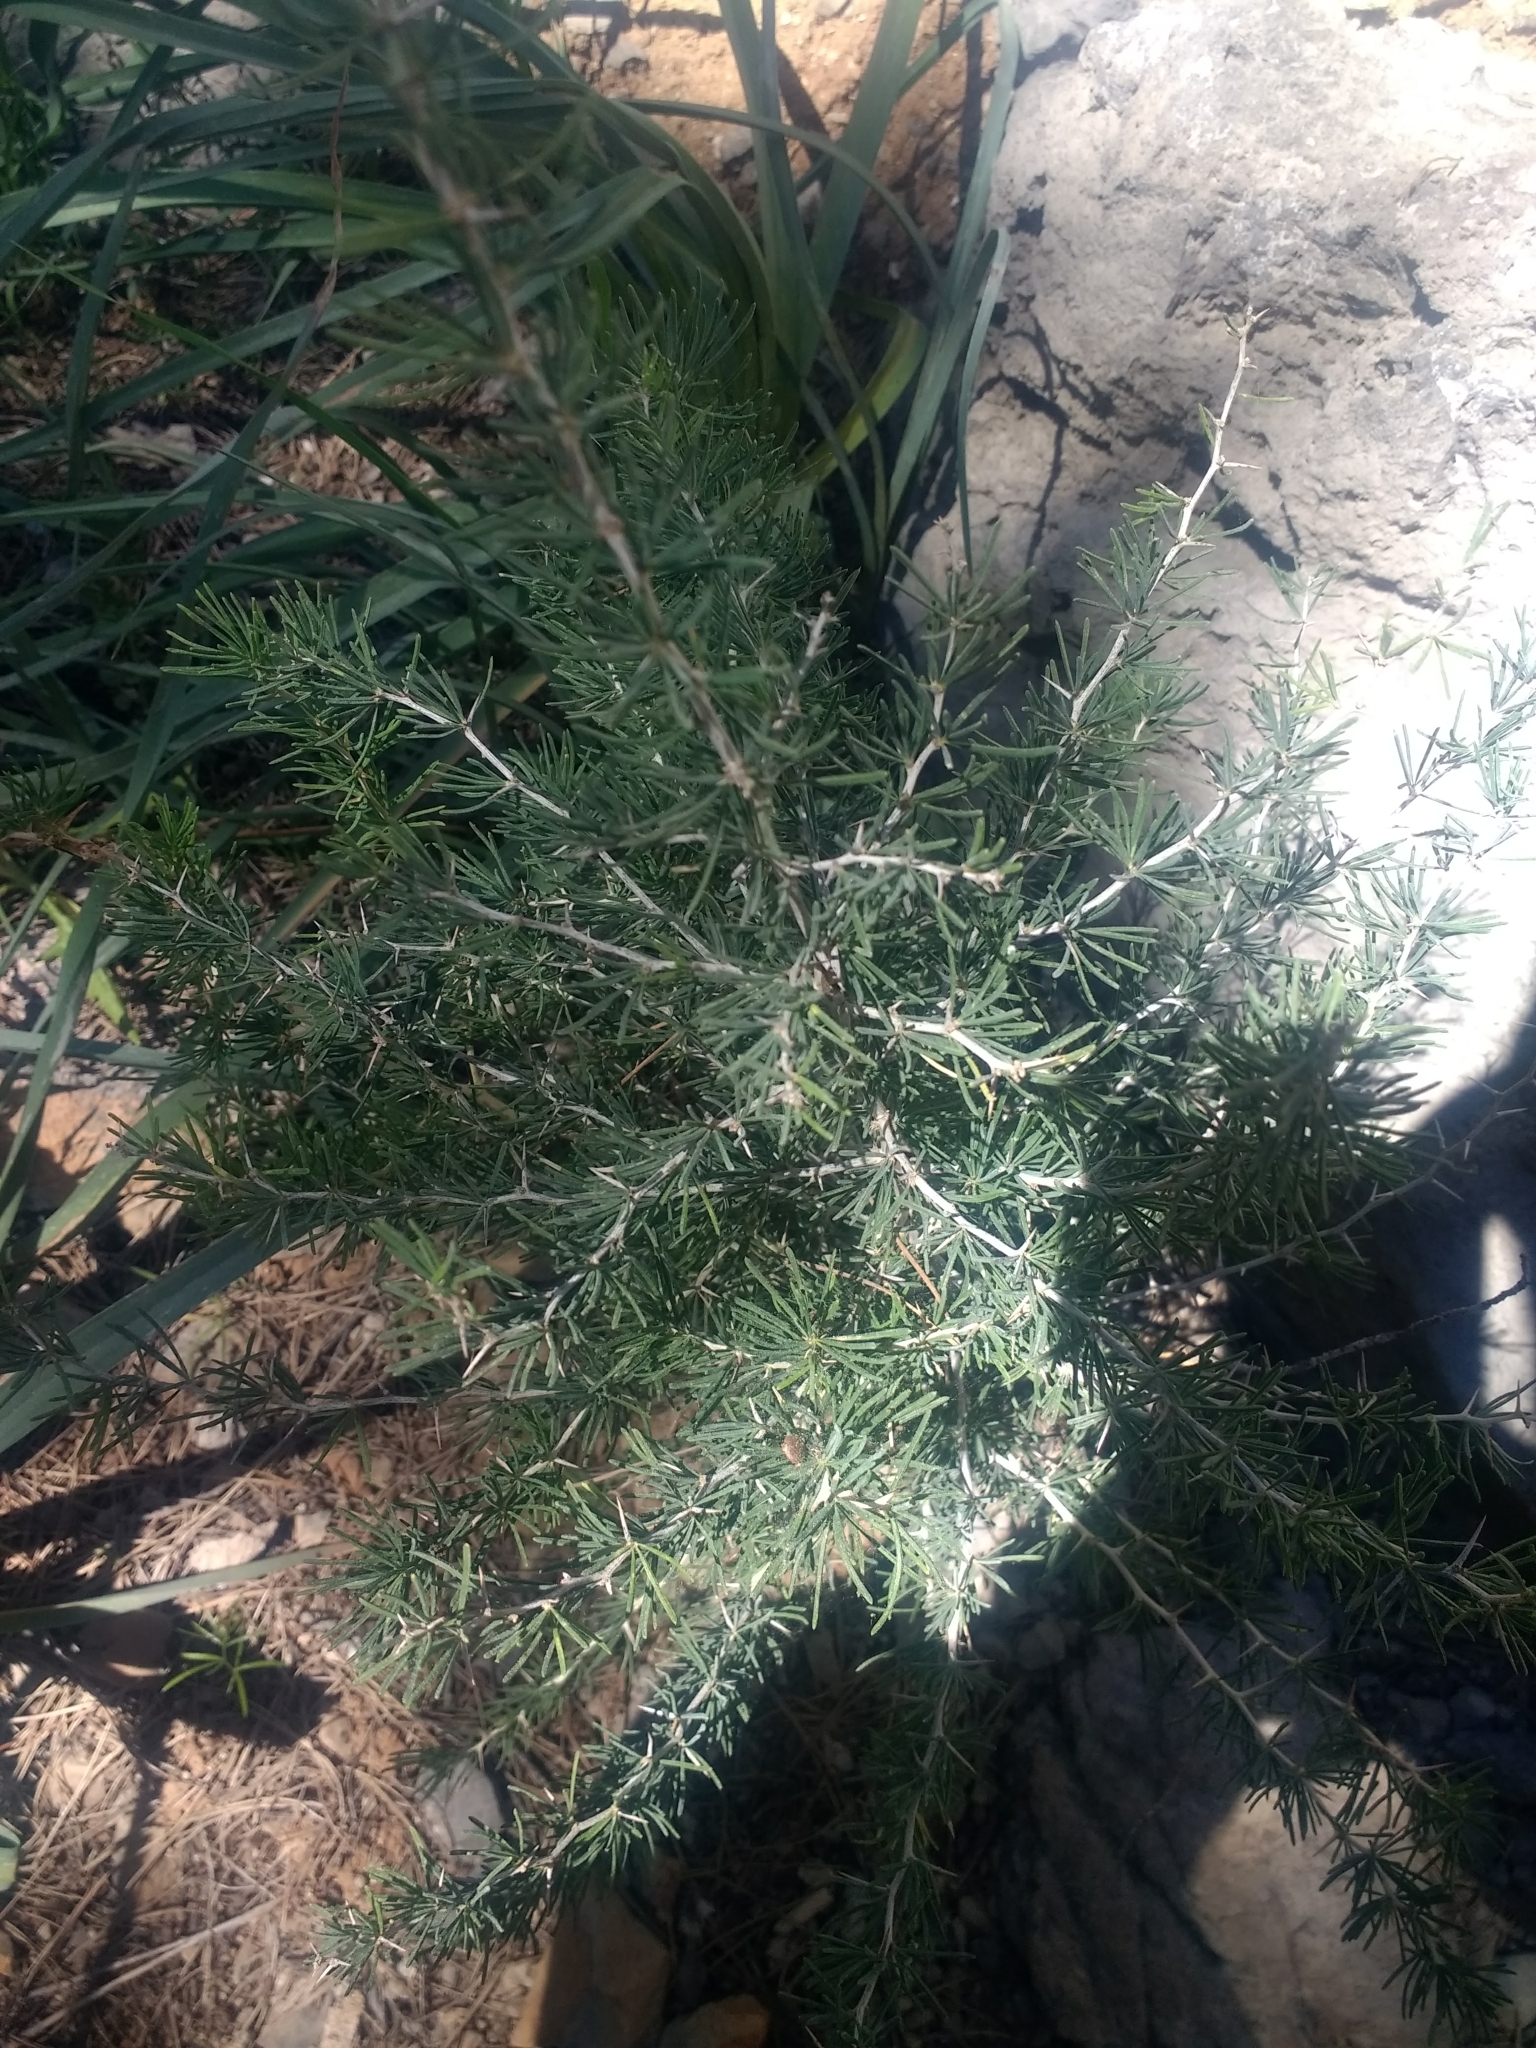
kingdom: Plantae
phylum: Tracheophyta
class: Liliopsida
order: Asparagales
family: Asparagaceae
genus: Asparagus
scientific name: Asparagus albus
